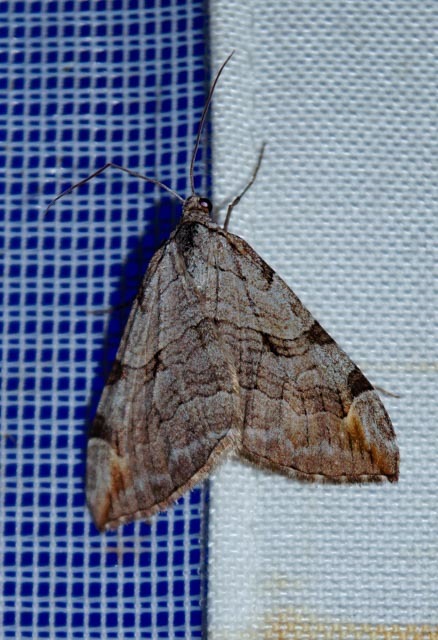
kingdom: Animalia
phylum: Arthropoda
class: Insecta
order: Lepidoptera
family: Geometridae
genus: Aplocera
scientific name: Aplocera plagiata
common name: Treble-bar
